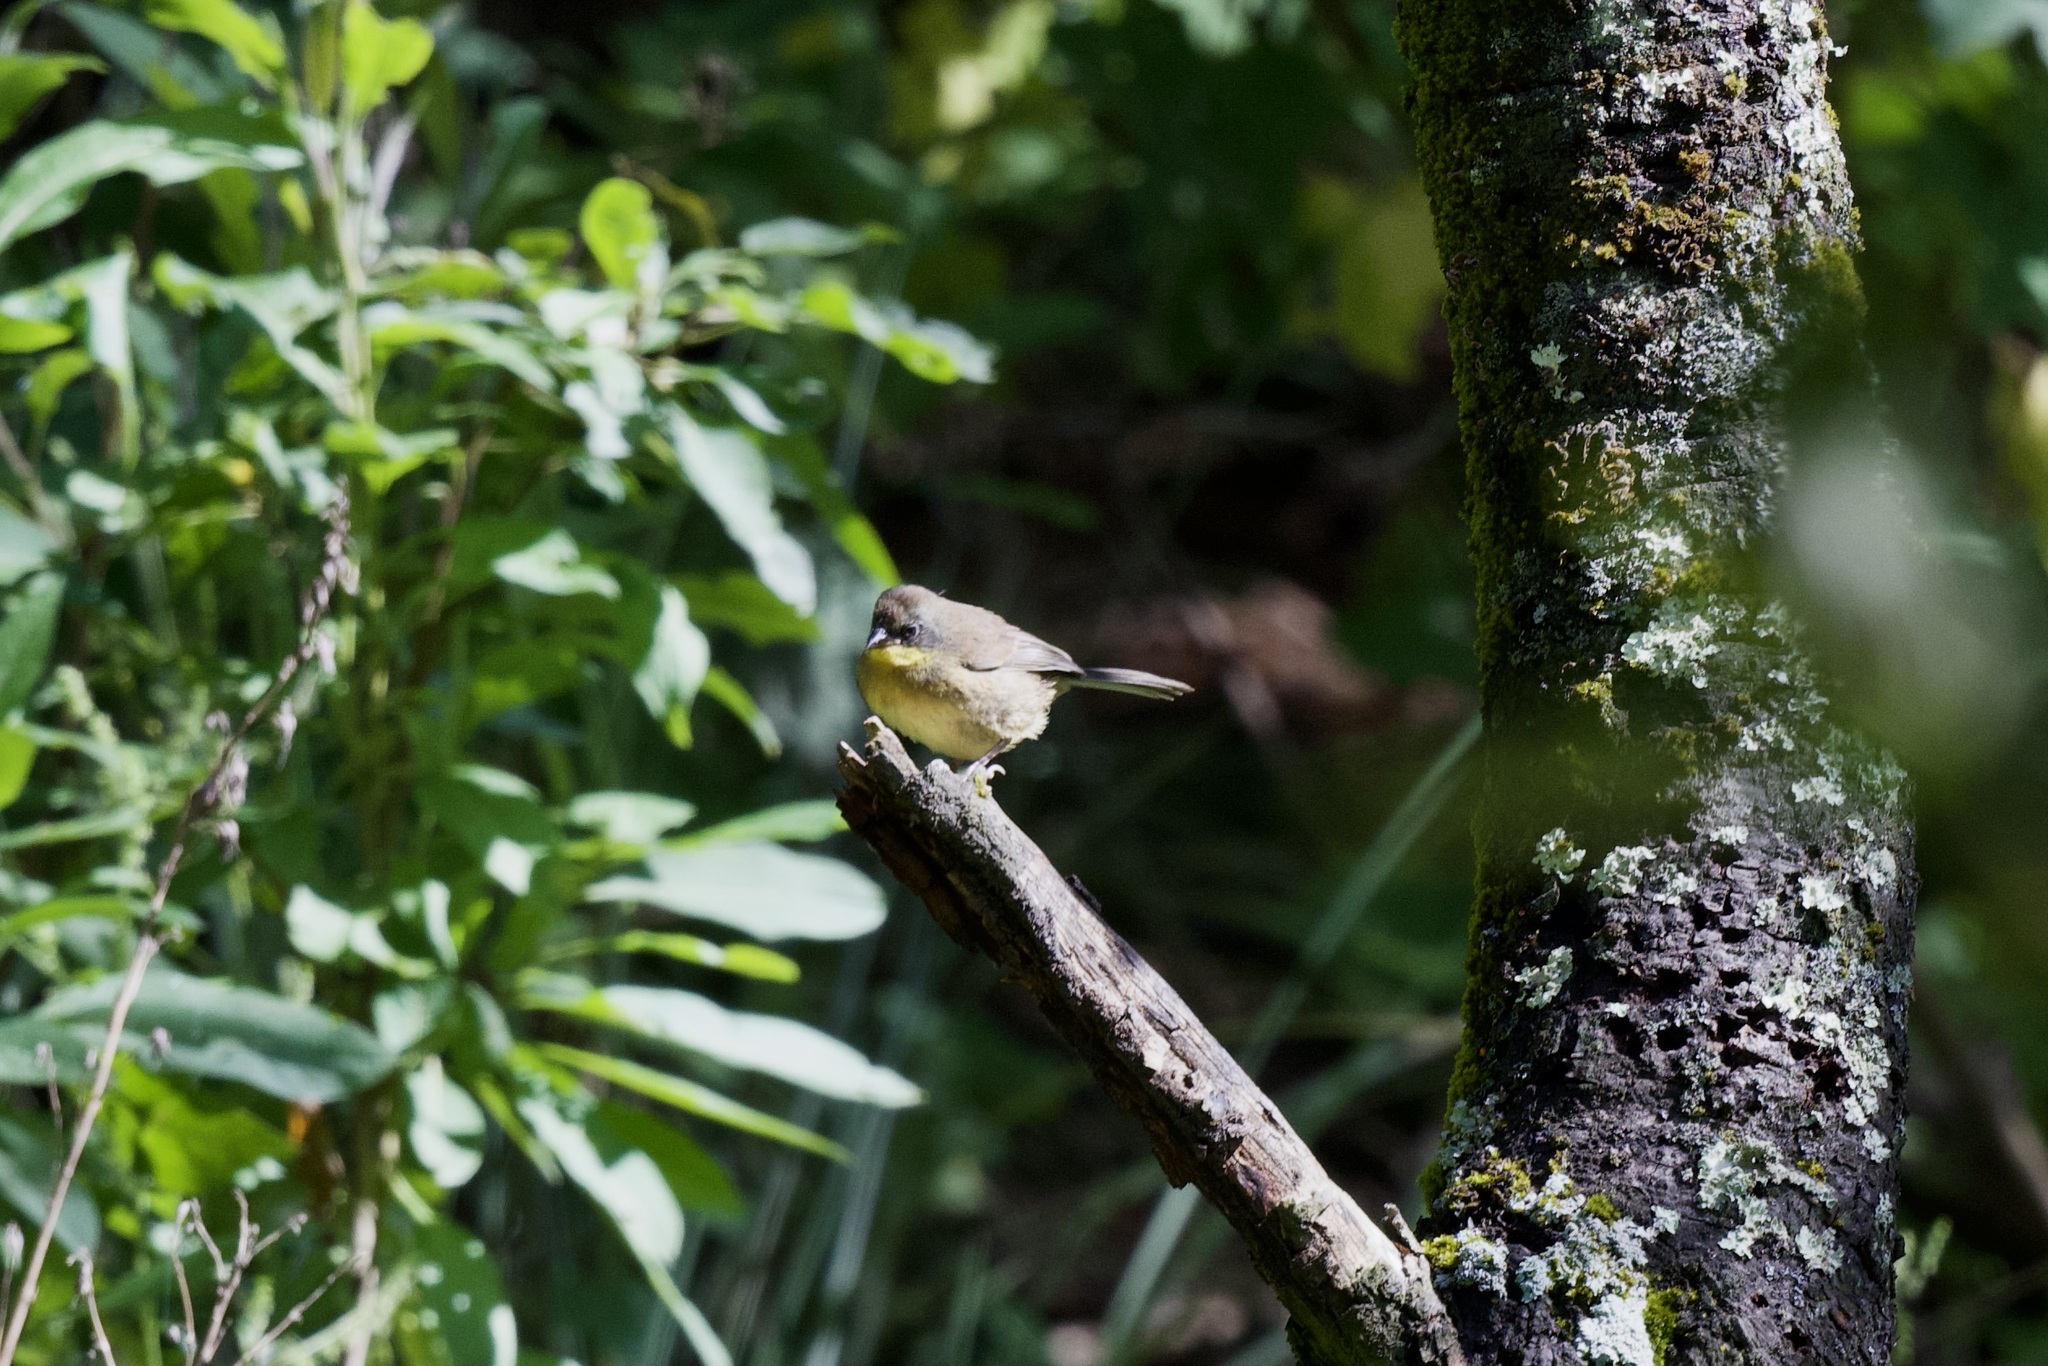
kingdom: Animalia
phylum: Chordata
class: Aves
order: Passeriformes
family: Passerellidae
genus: Atlapetes
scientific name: Atlapetes pileatus
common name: Rufous-capped brush-finch
